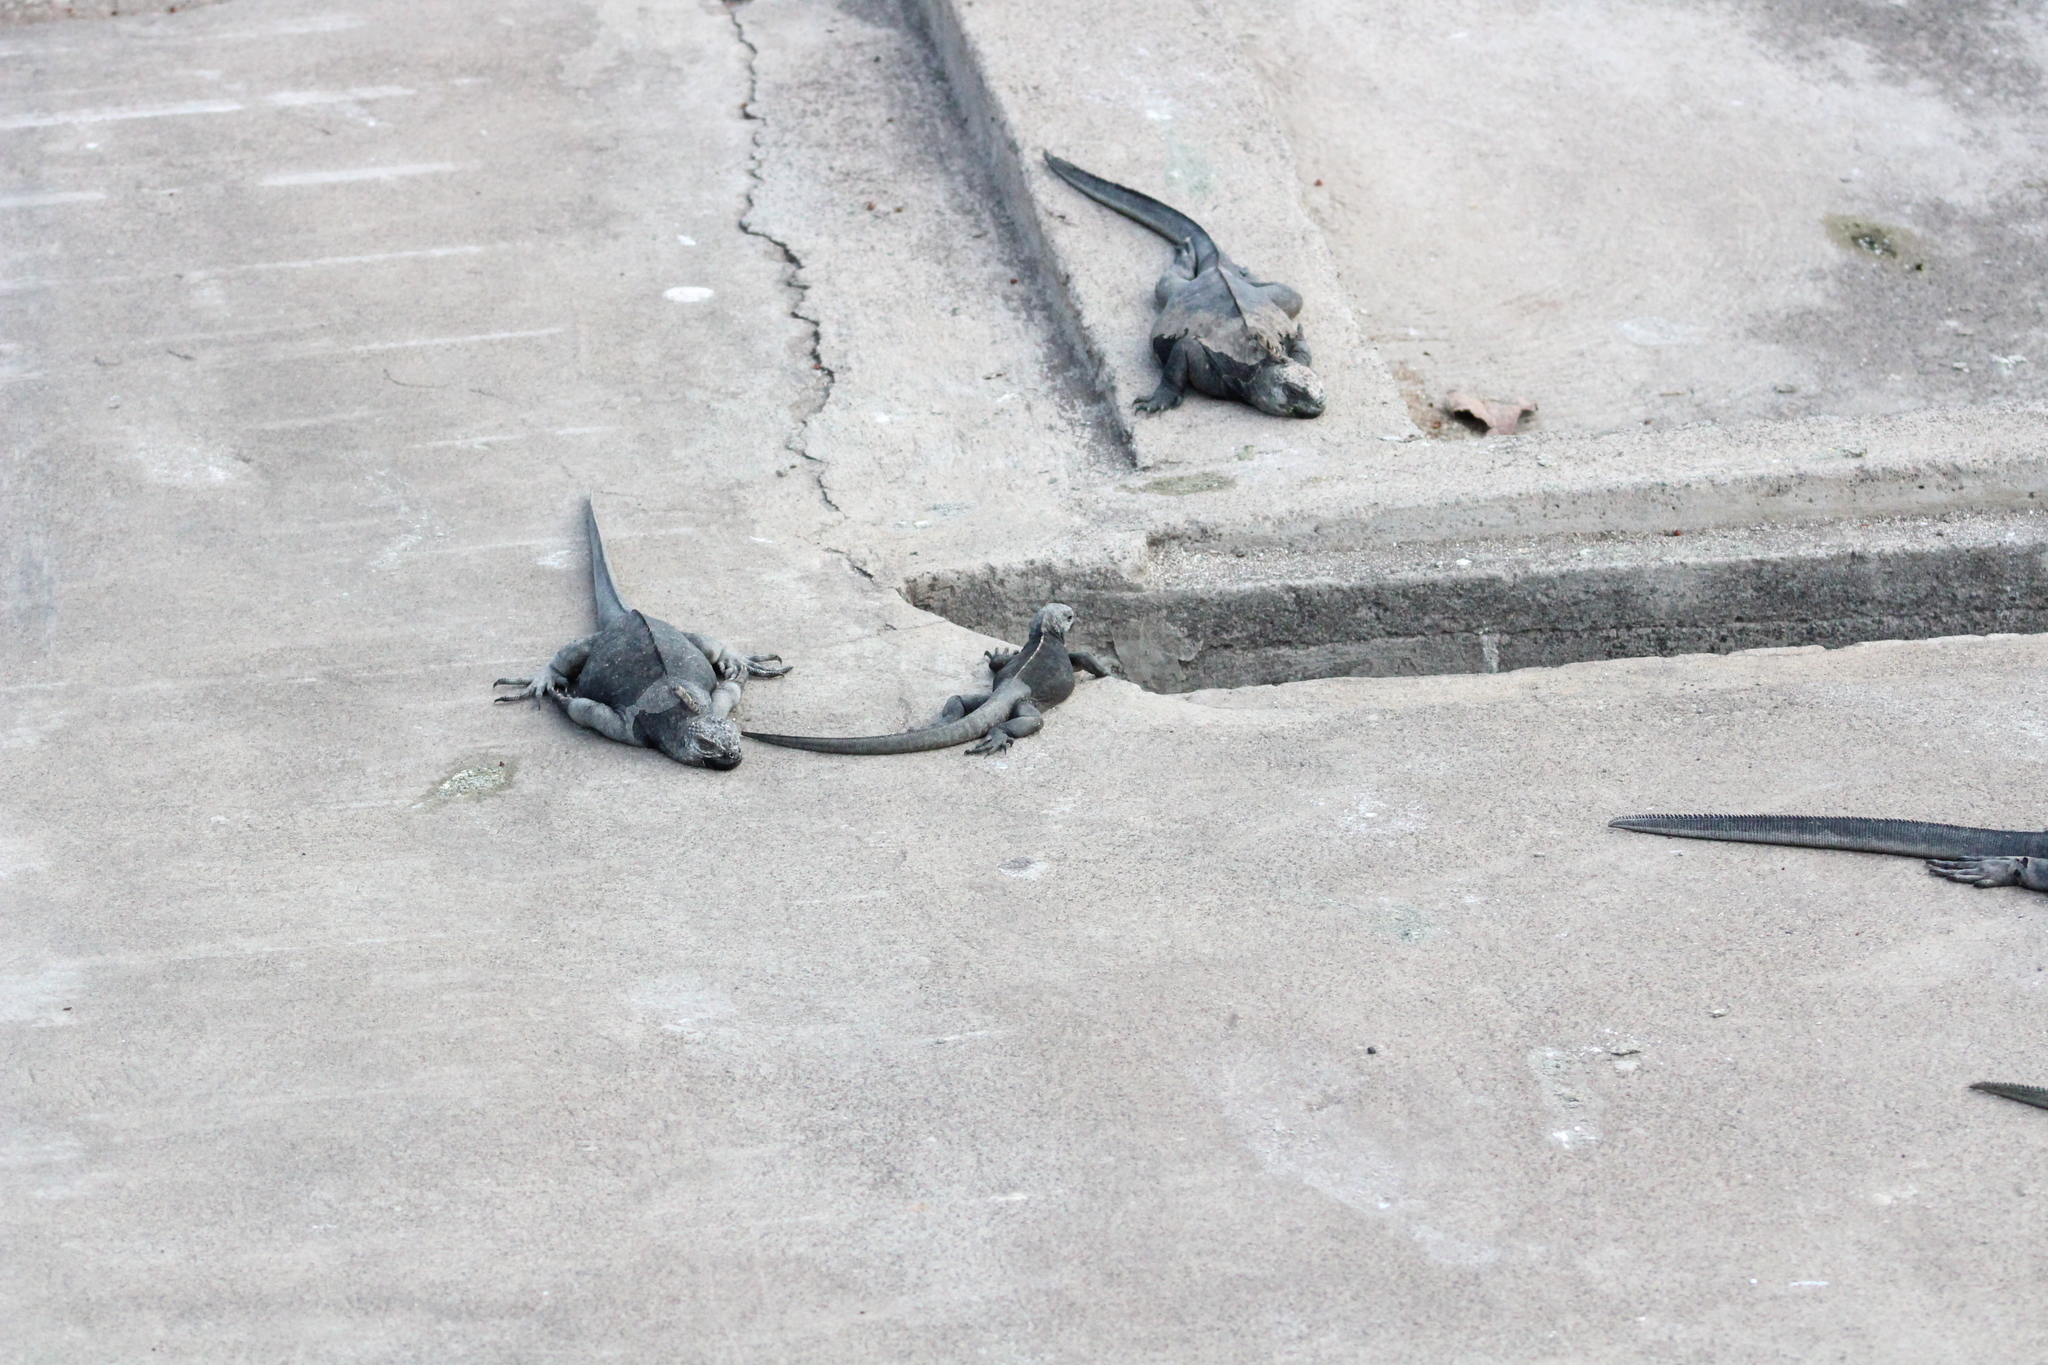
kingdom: Animalia
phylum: Chordata
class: Squamata
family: Iguanidae
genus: Amblyrhynchus
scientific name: Amblyrhynchus cristatus
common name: Marine iguana
